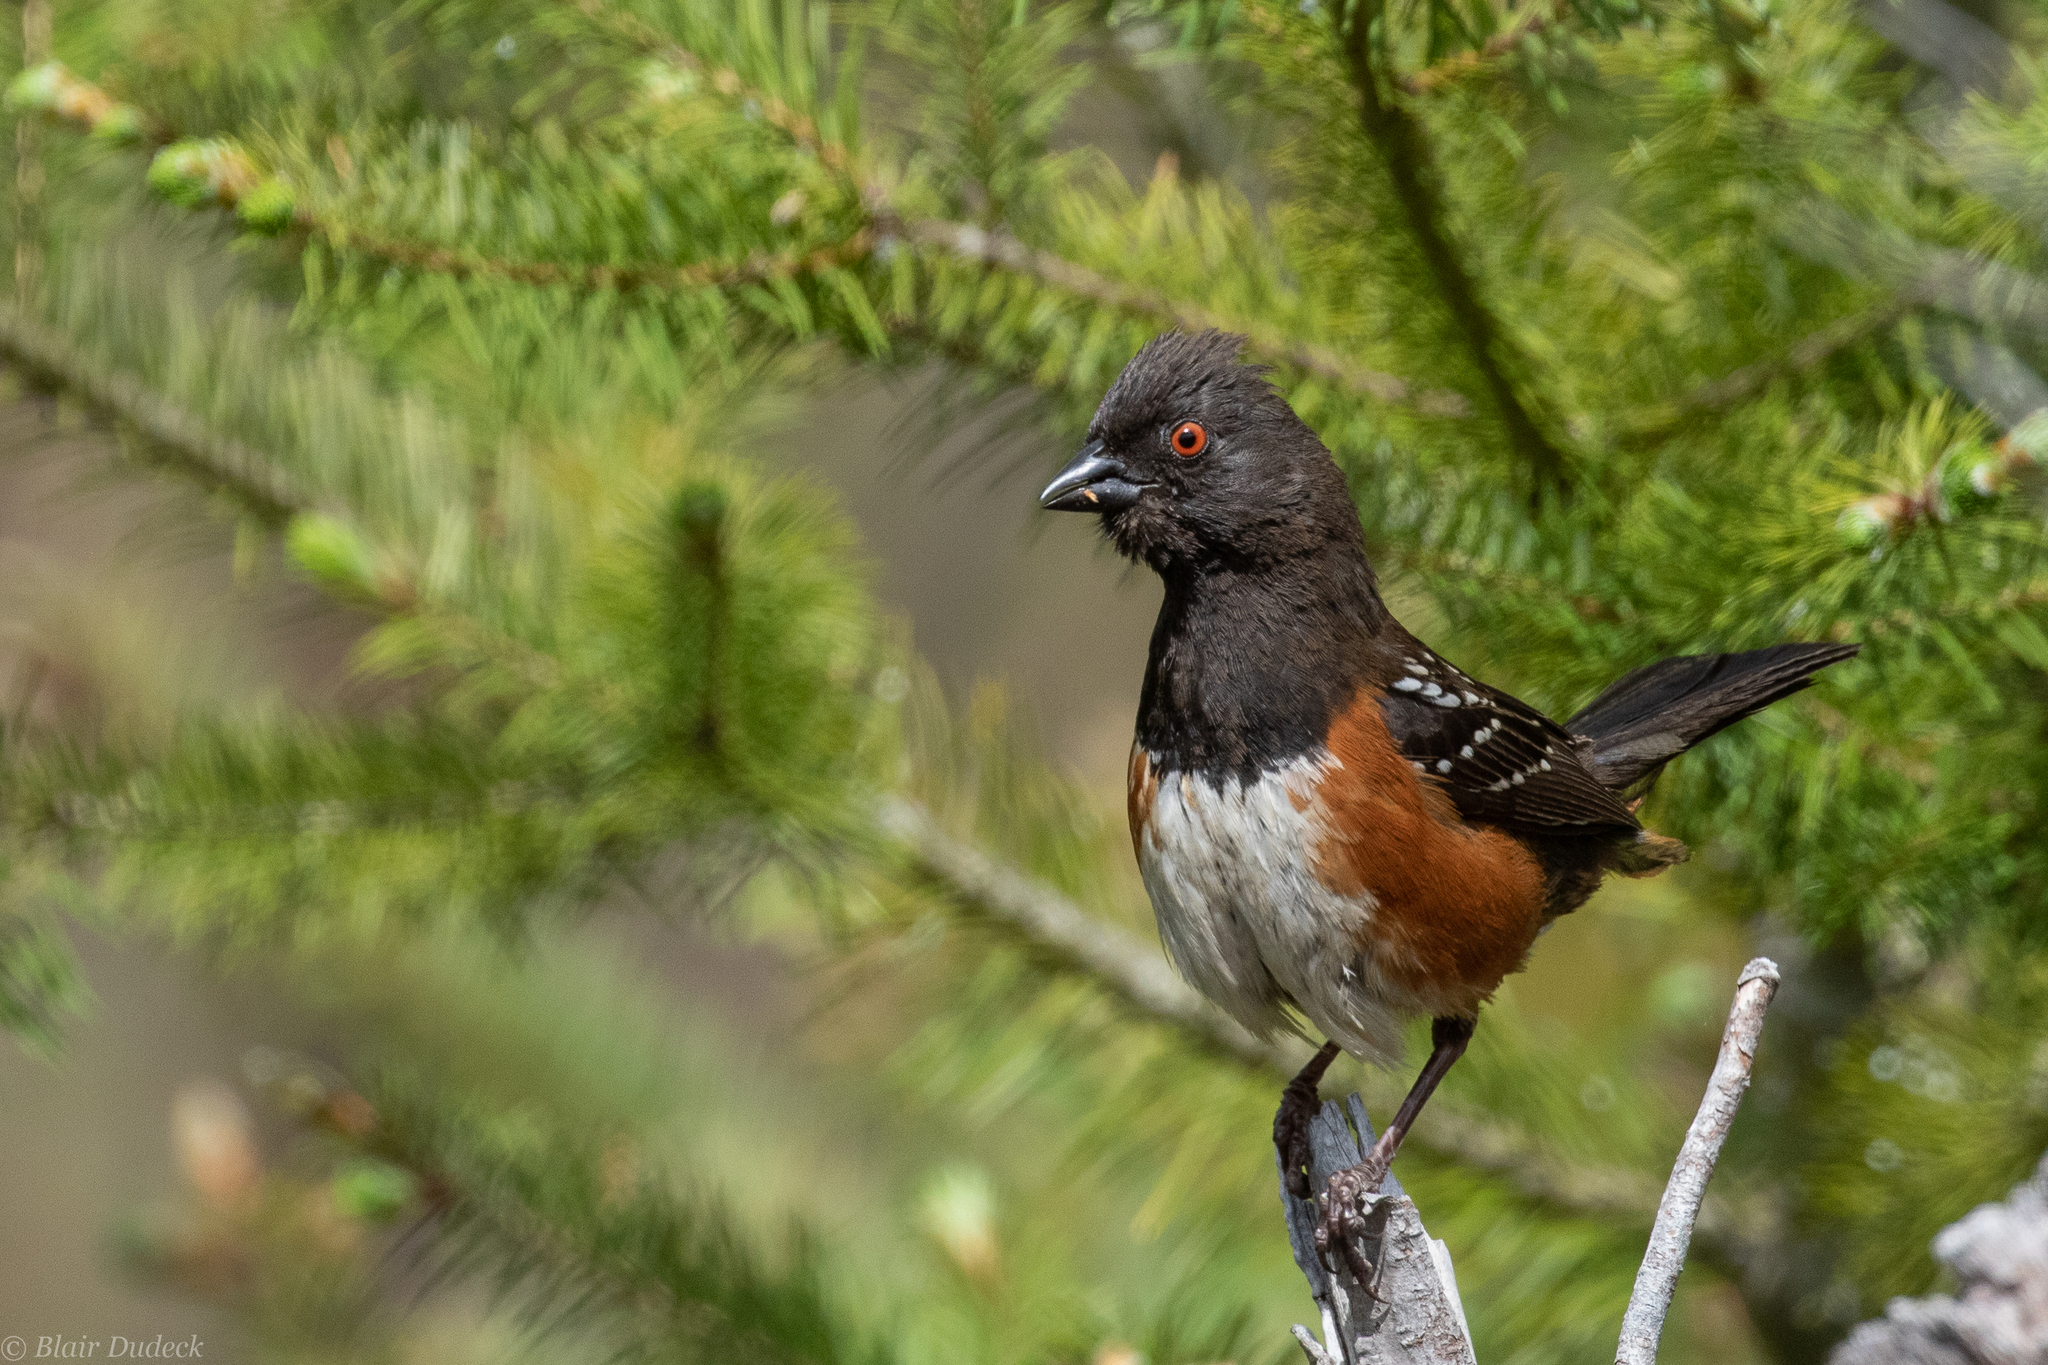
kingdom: Animalia
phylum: Chordata
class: Aves
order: Passeriformes
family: Passerellidae
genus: Pipilo
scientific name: Pipilo maculatus
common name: Spotted towhee
